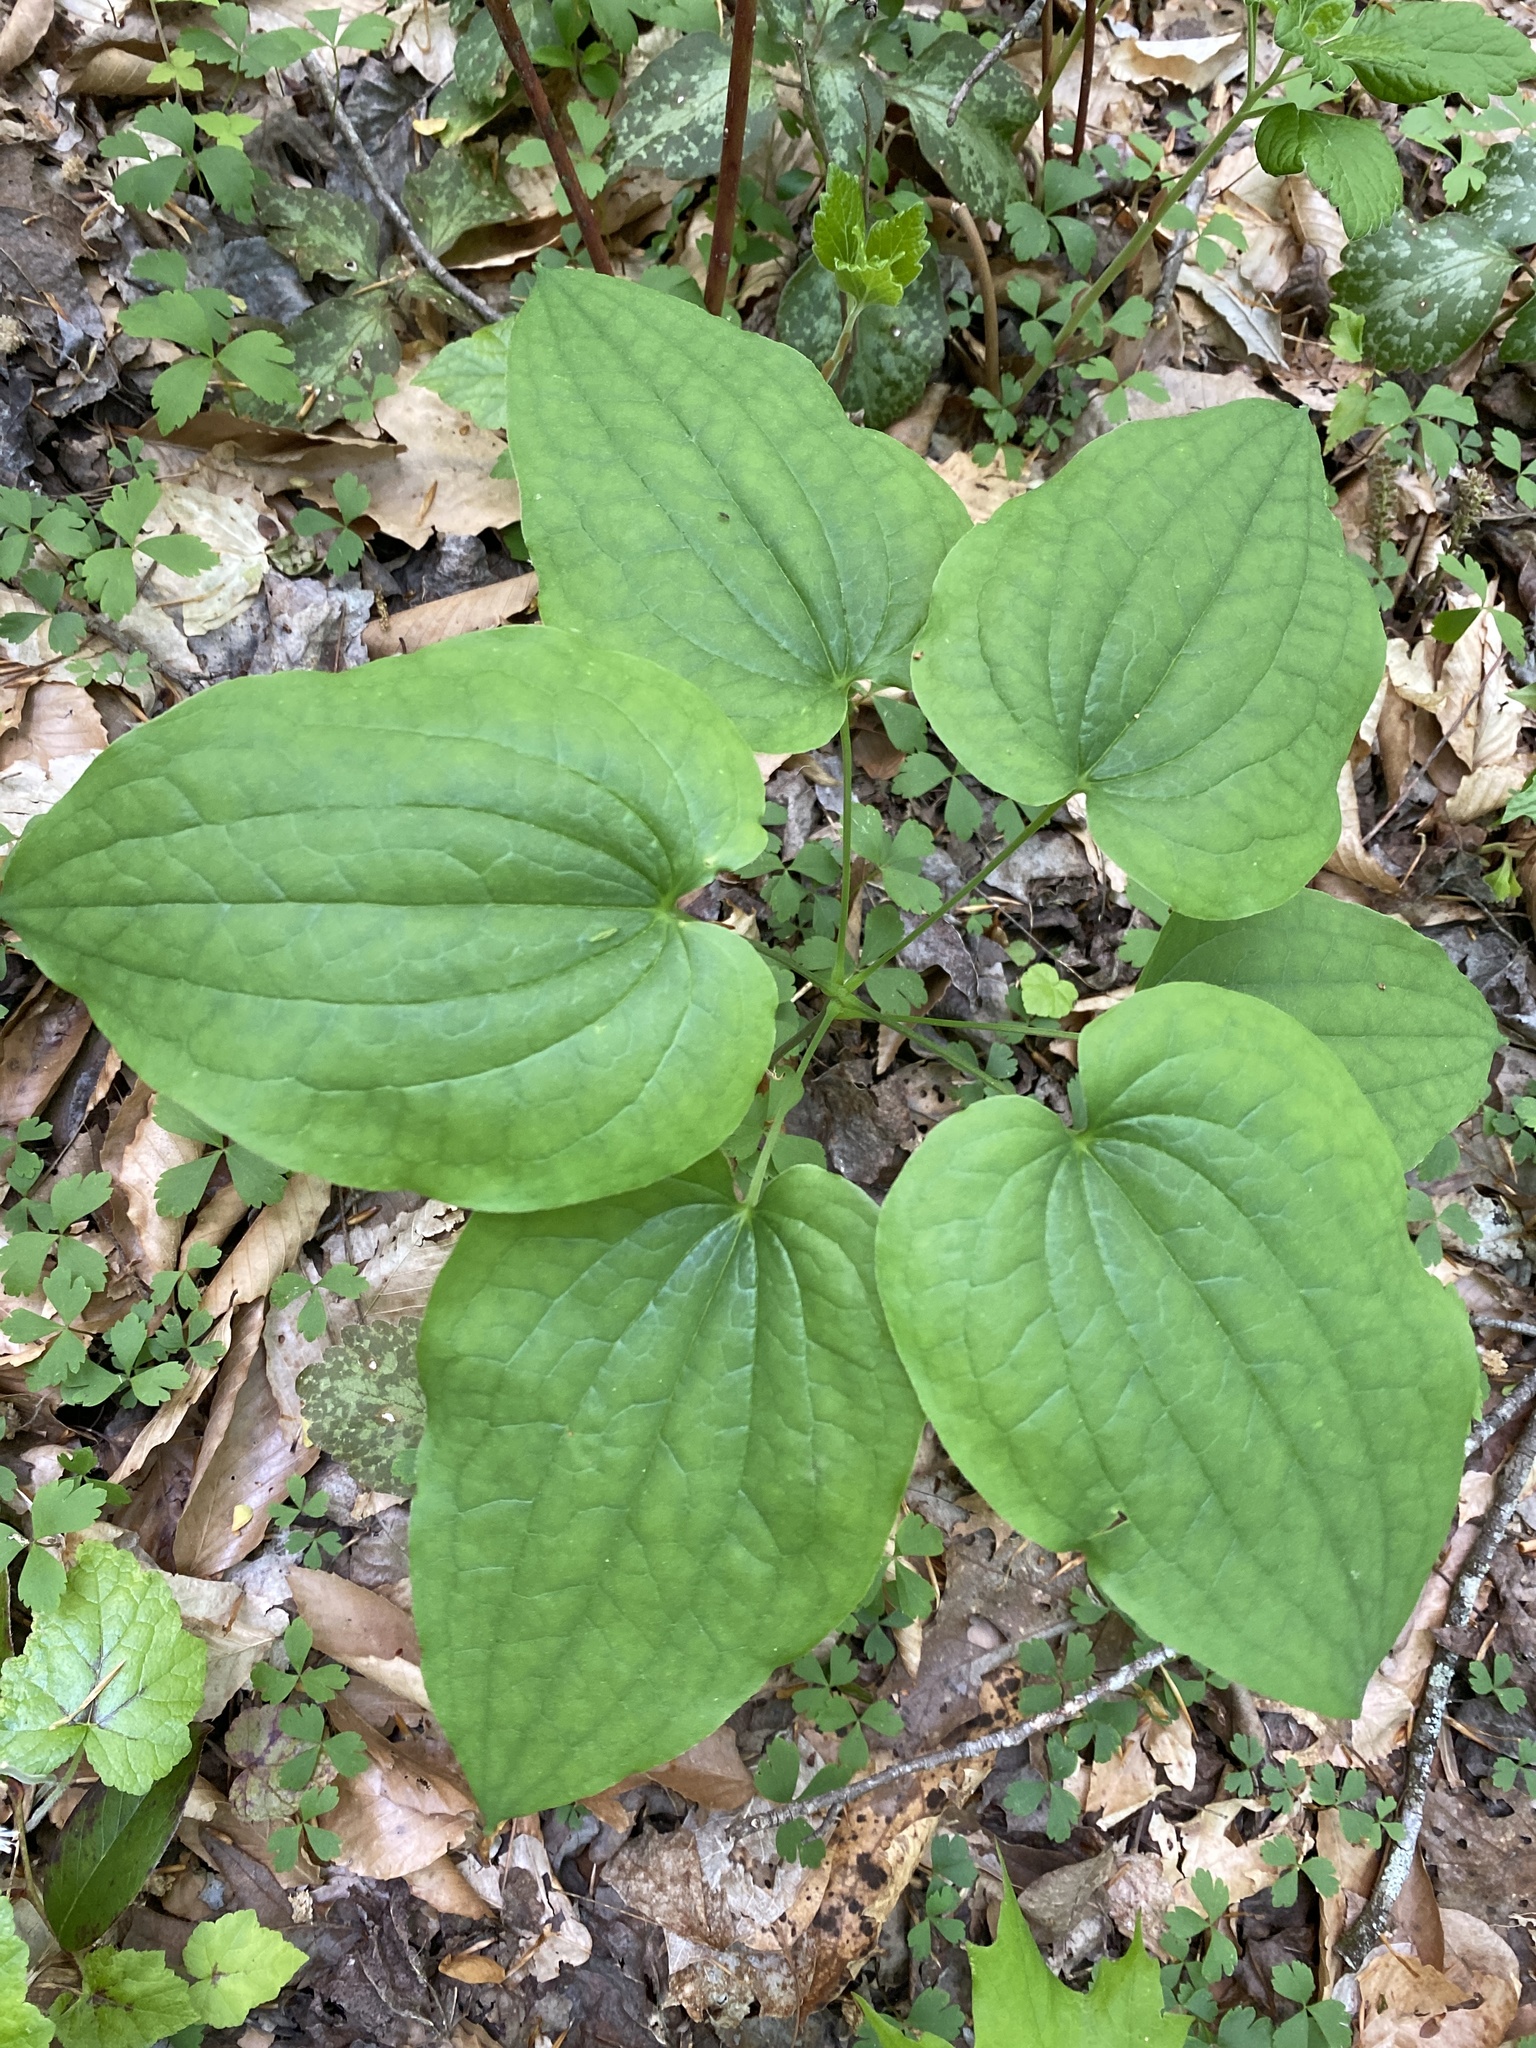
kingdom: Plantae
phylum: Tracheophyta
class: Liliopsida
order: Liliales
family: Smilacaceae
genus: Smilax
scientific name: Smilax biltmoreana
